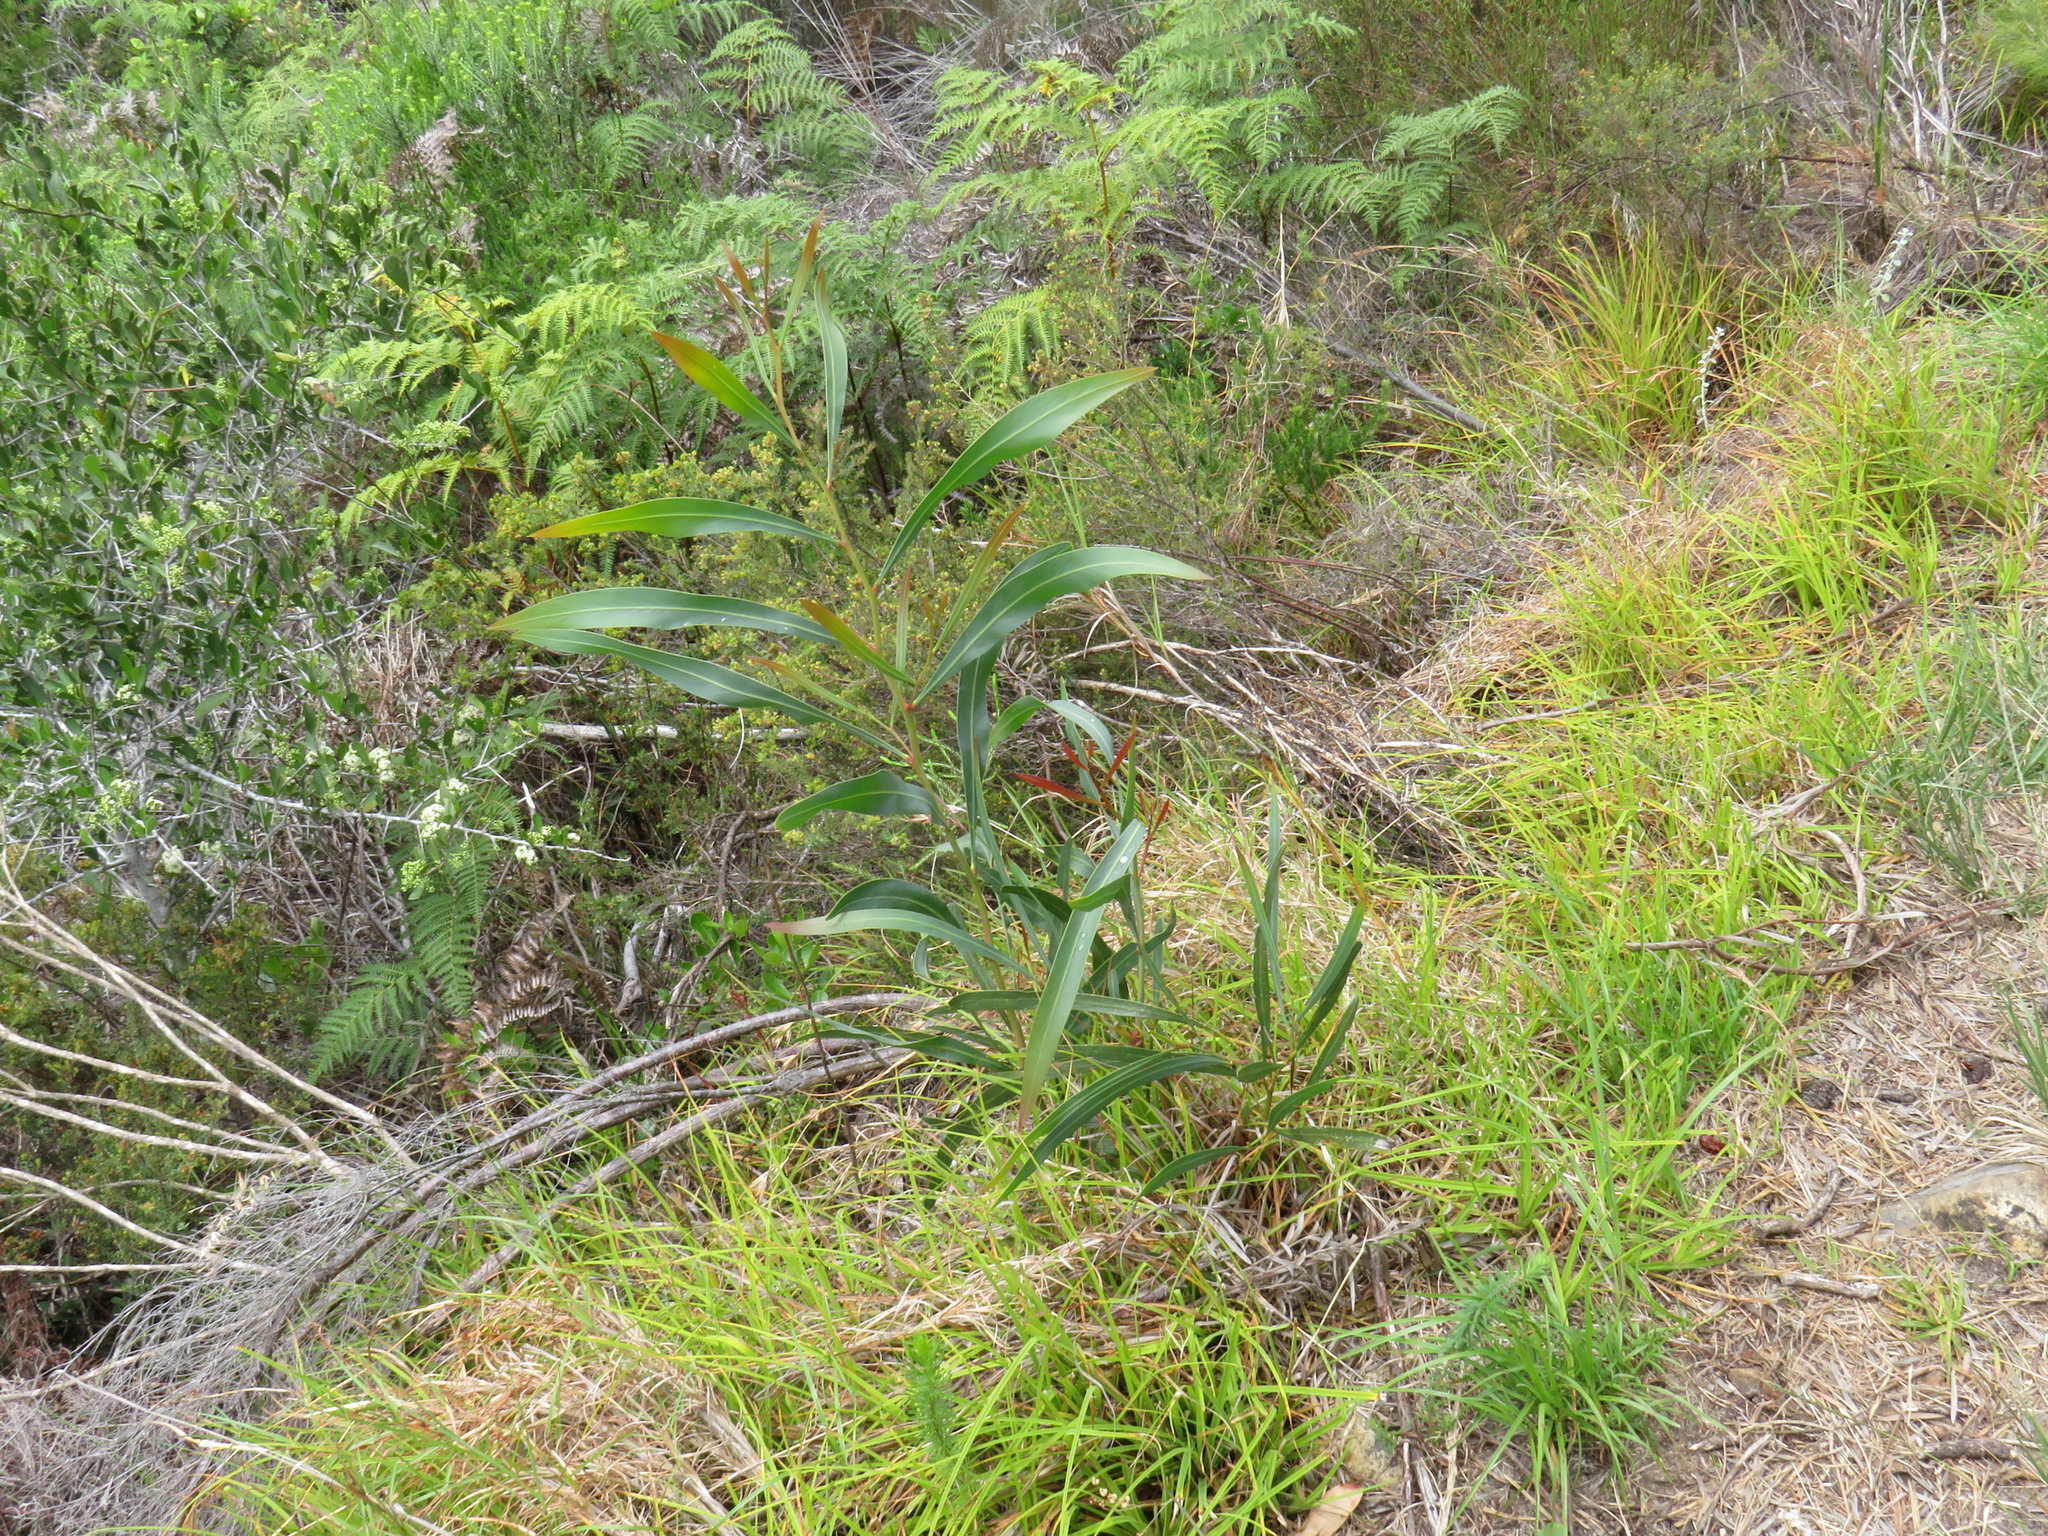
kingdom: Plantae
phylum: Tracheophyta
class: Magnoliopsida
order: Fabales
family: Fabaceae
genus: Acacia
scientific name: Acacia saligna
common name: Orange wattle
